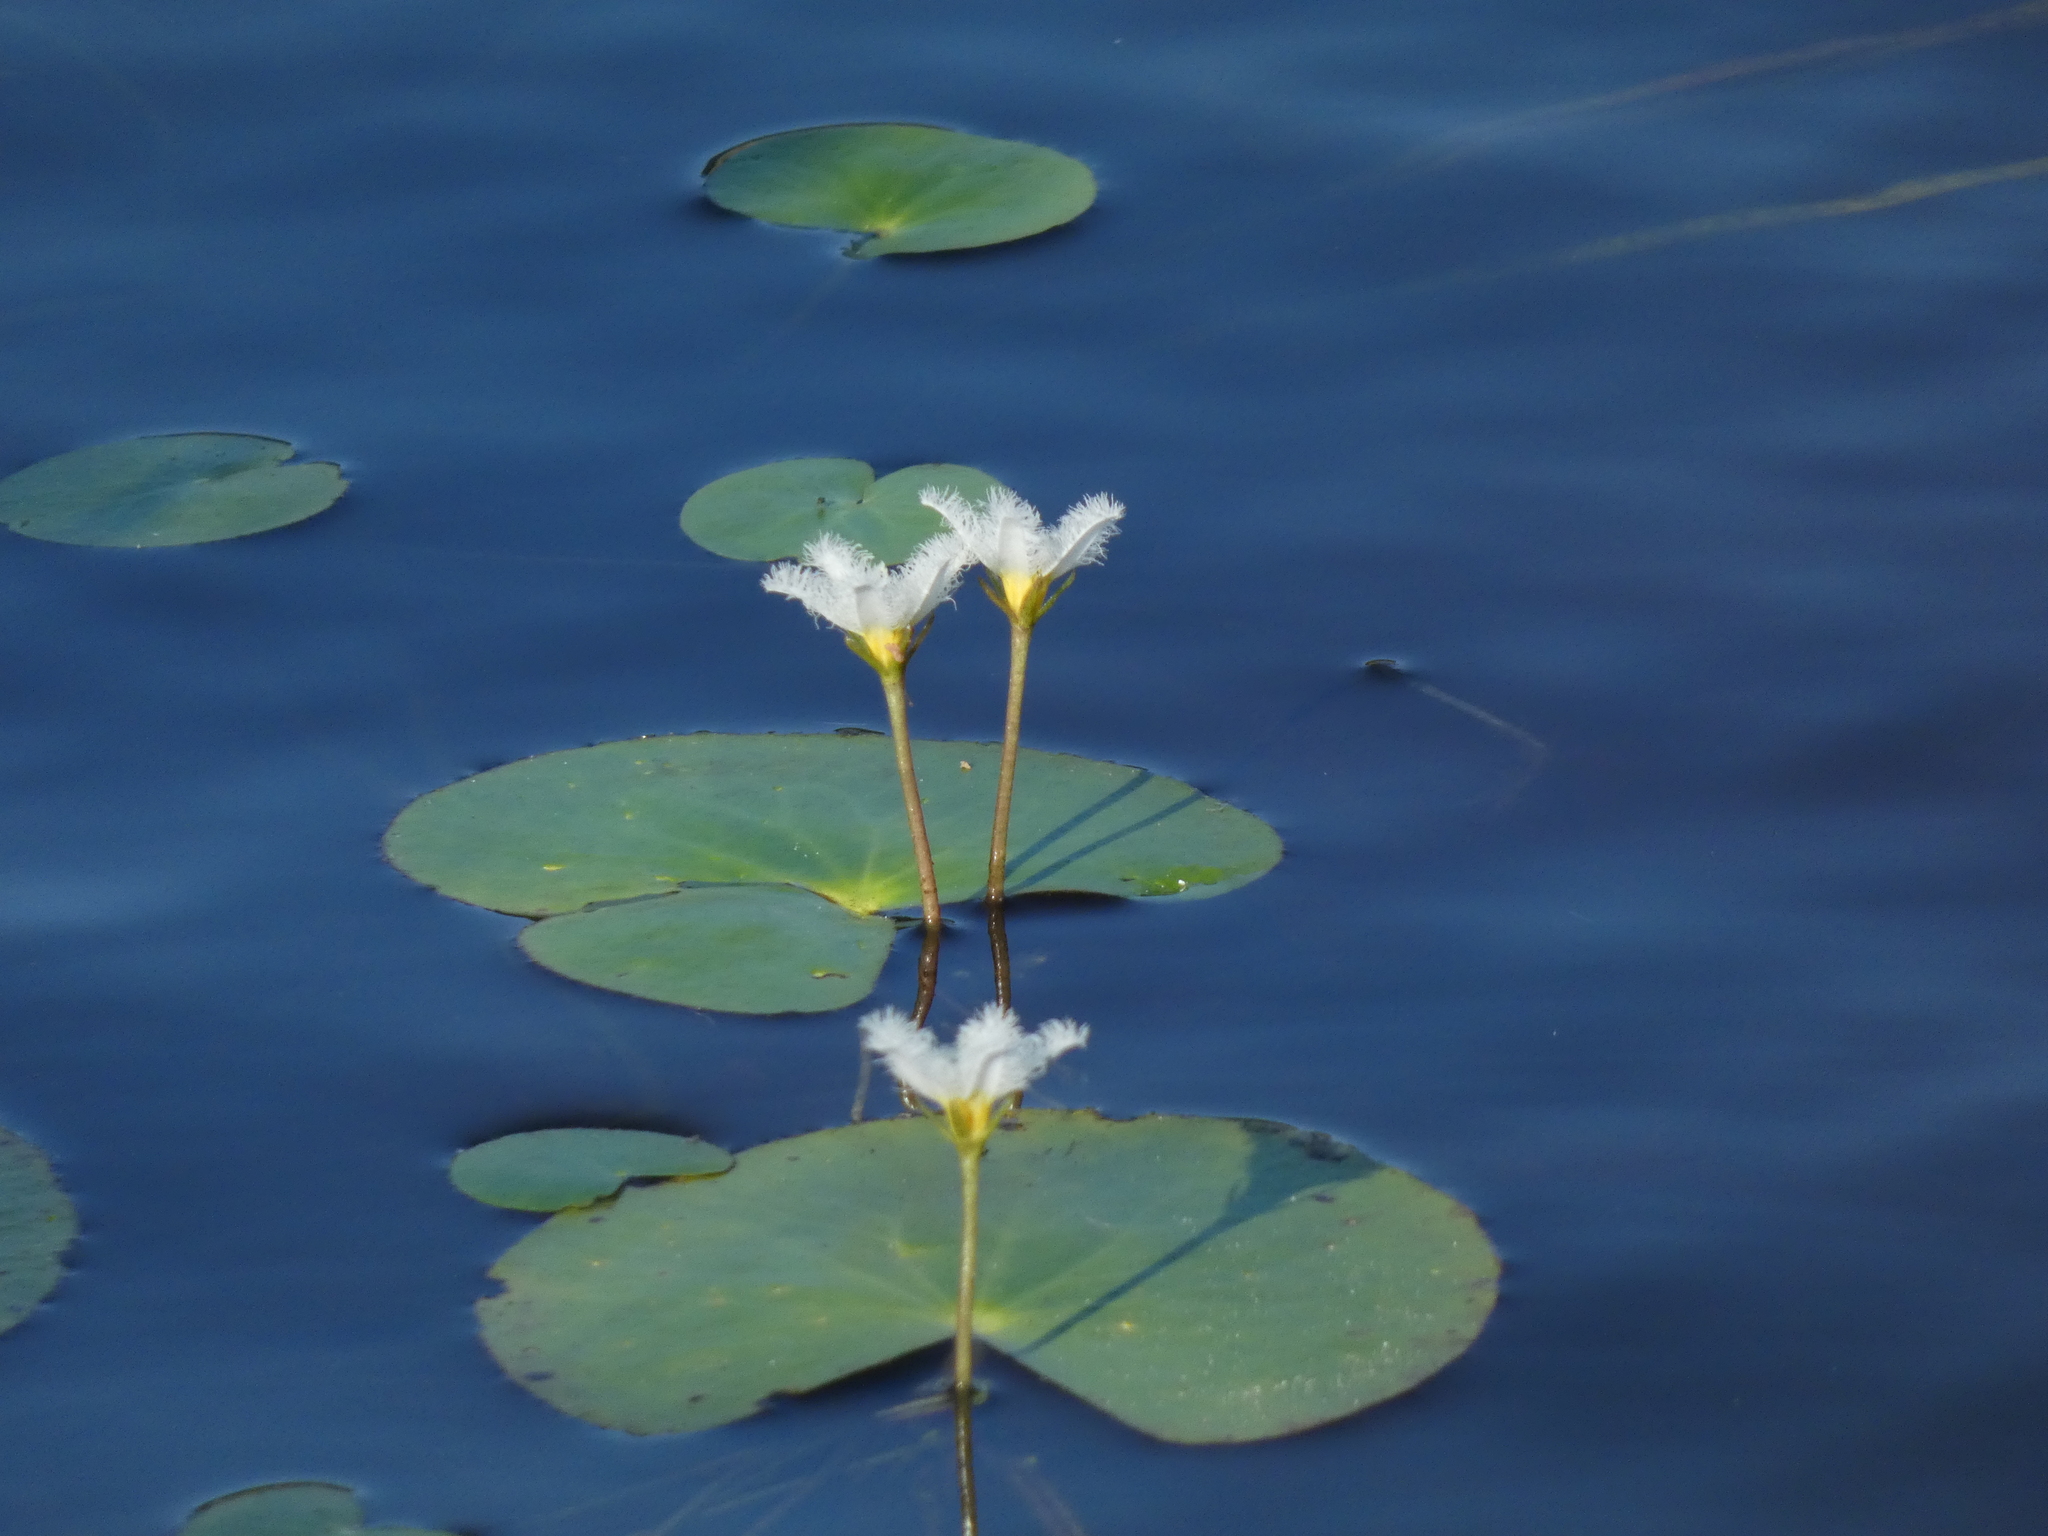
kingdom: Plantae
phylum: Tracheophyta
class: Magnoliopsida
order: Asterales
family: Menyanthaceae
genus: Nymphoides
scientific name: Nymphoides humboldtiana
